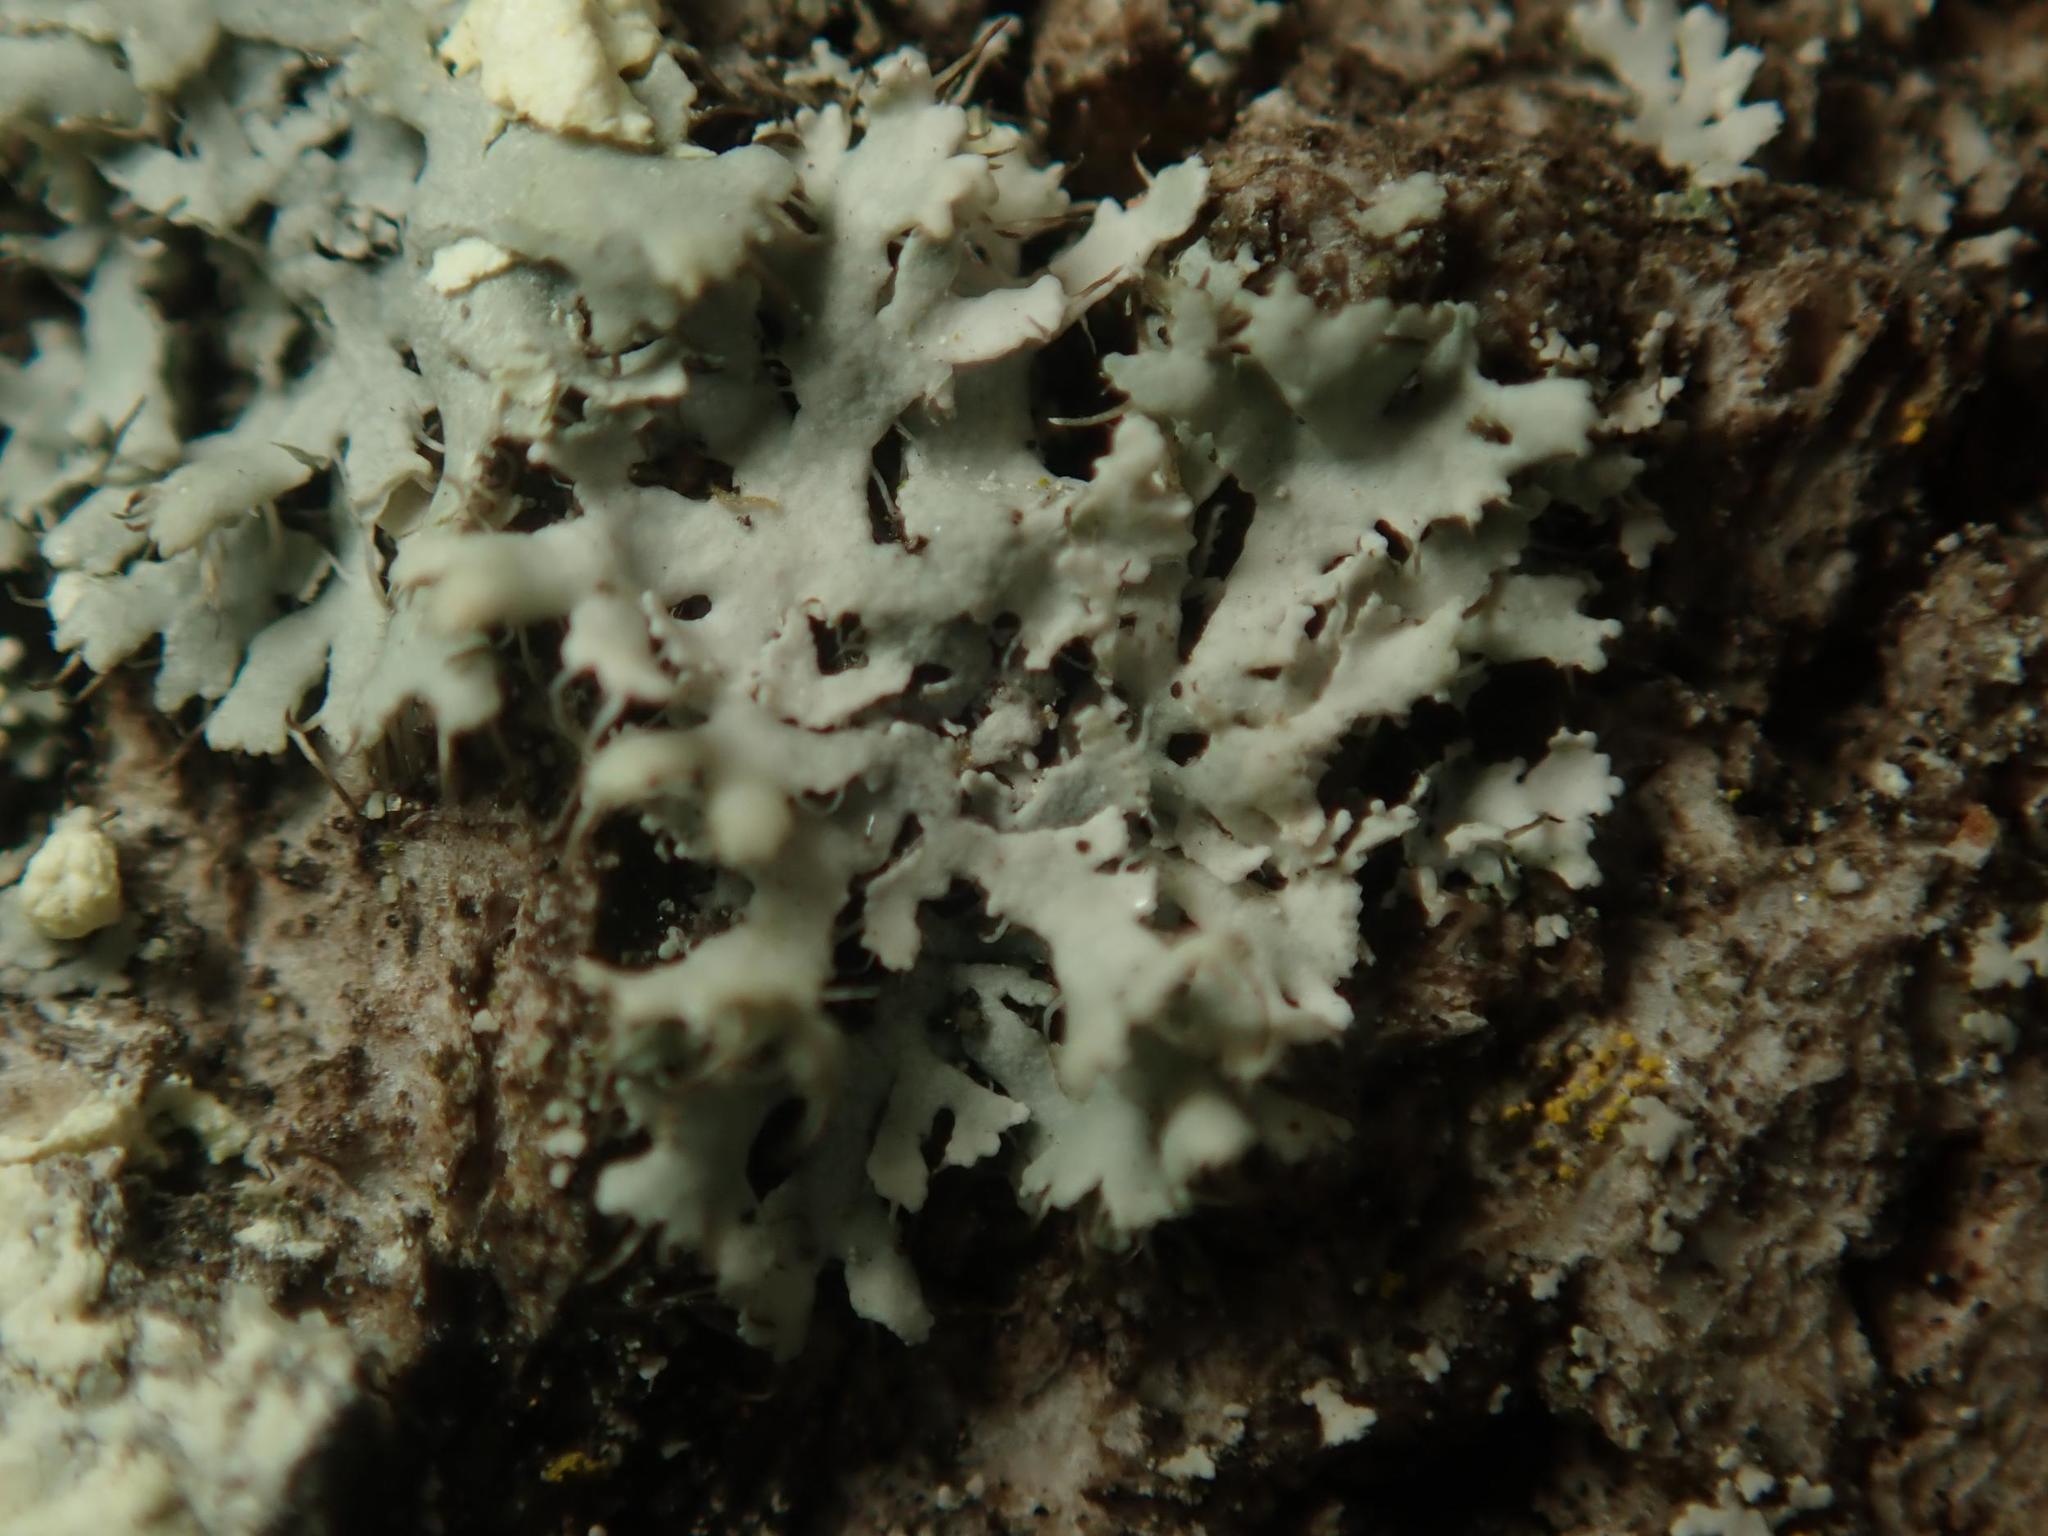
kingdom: Fungi
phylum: Ascomycota
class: Lecanoromycetes
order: Caliciales
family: Physciaceae
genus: Physcia
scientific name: Physcia adscendens
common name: Hooded rosette lichen
